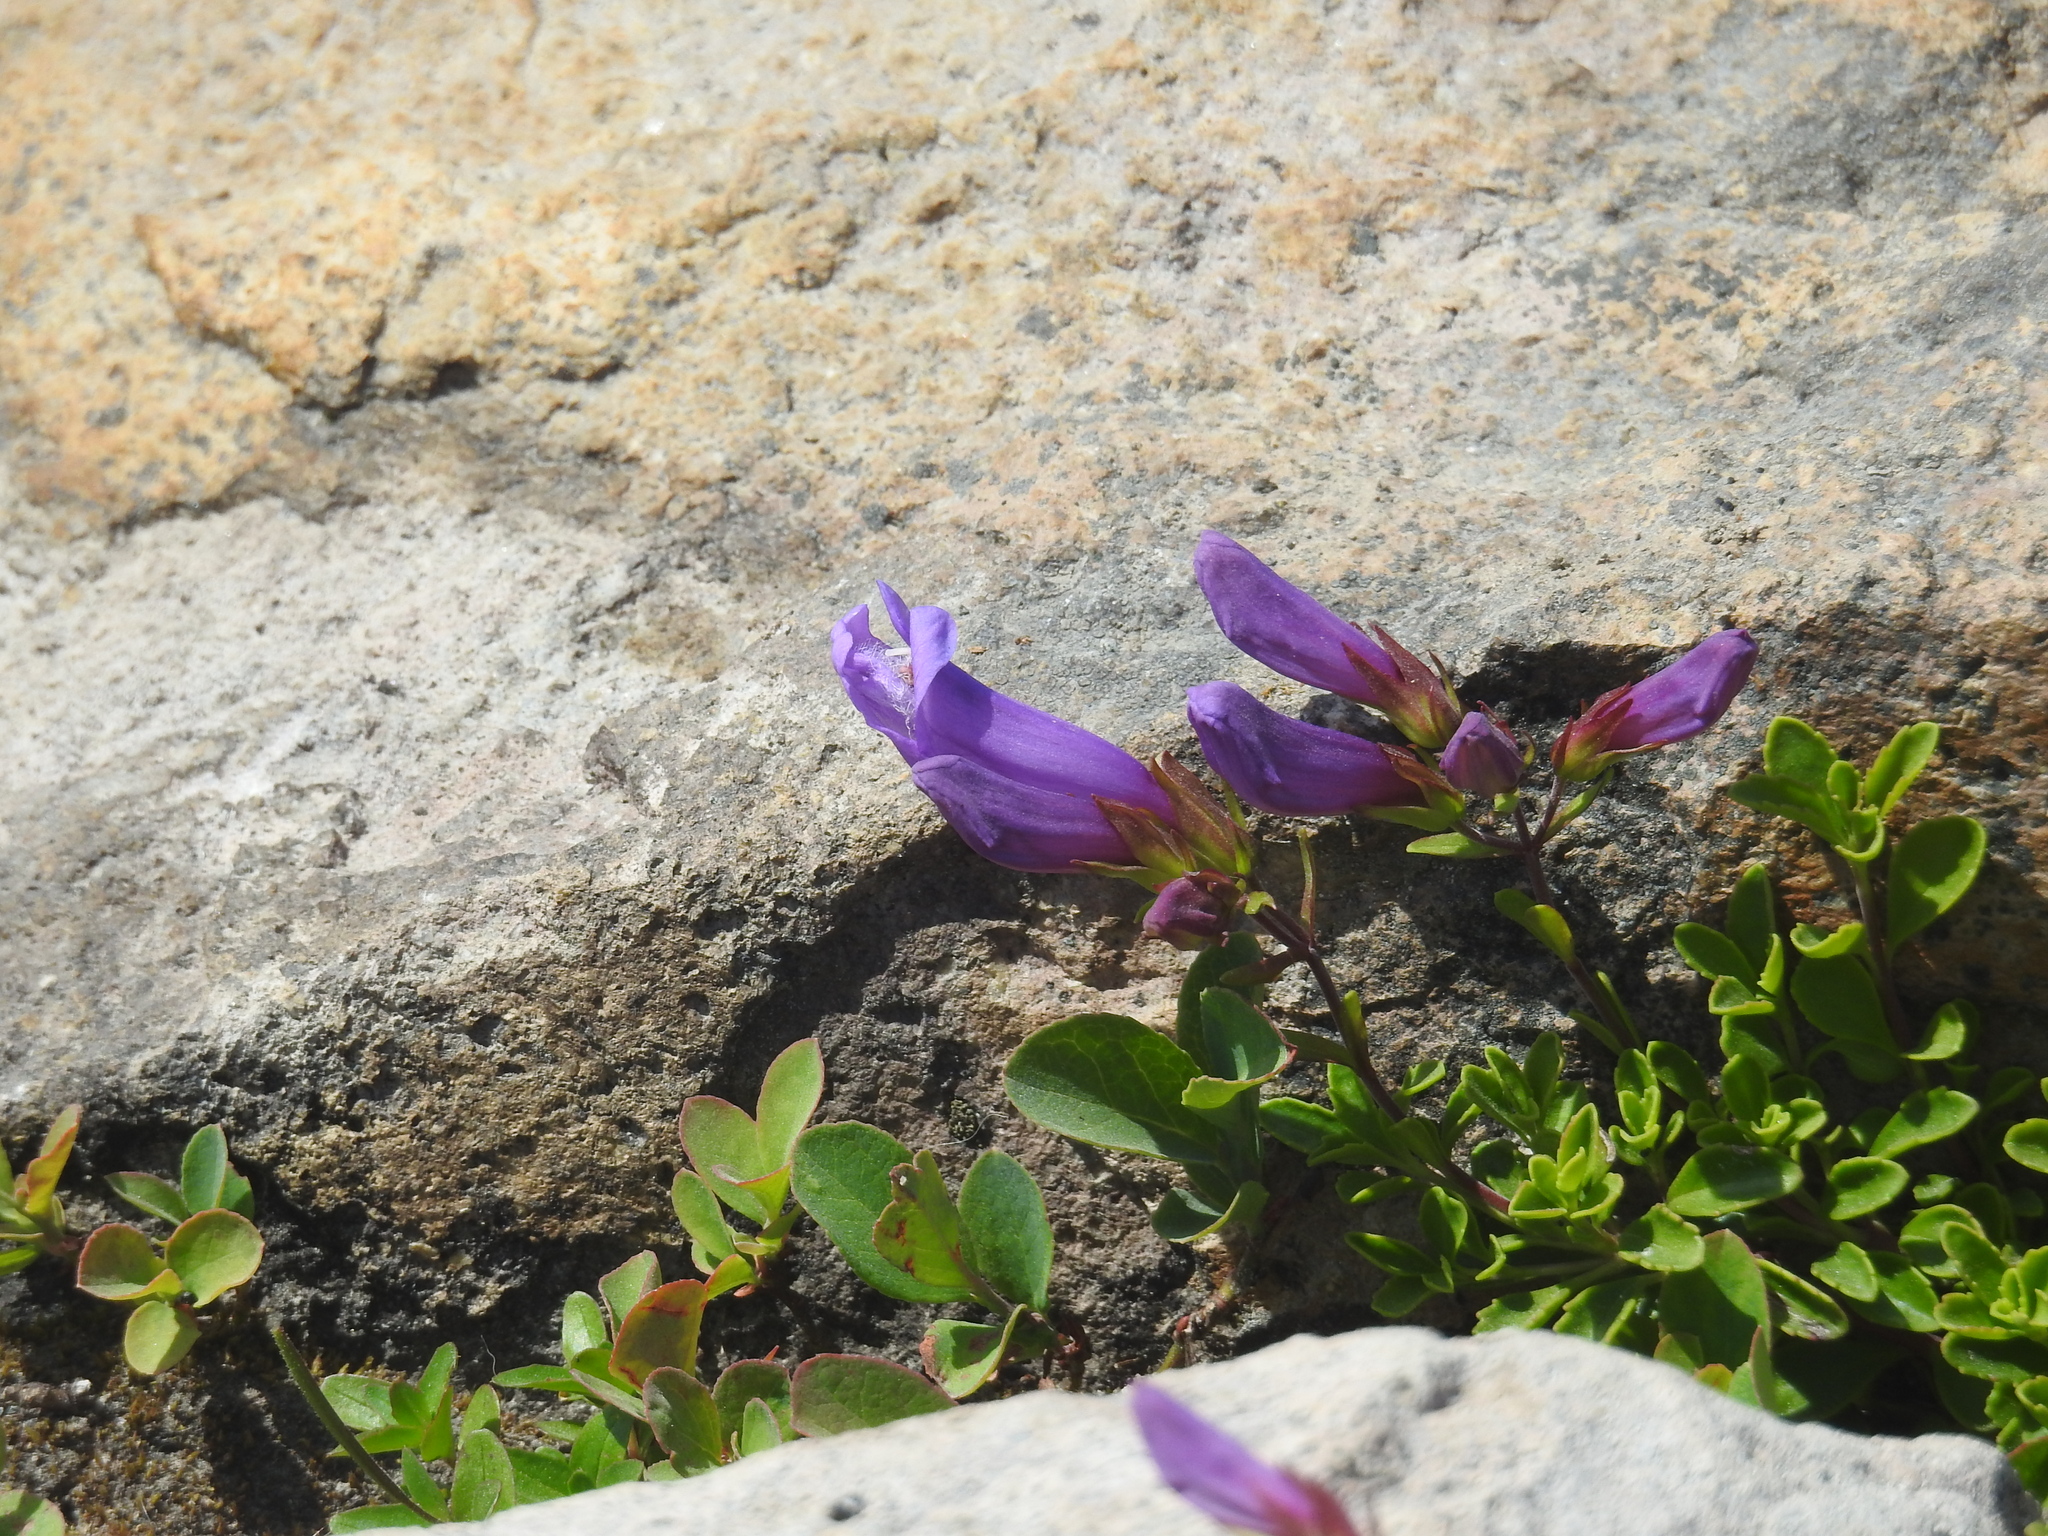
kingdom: Plantae
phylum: Tracheophyta
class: Magnoliopsida
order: Lamiales
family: Plantaginaceae
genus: Penstemon
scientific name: Penstemon davidsonii
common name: Davidson's penstemon
